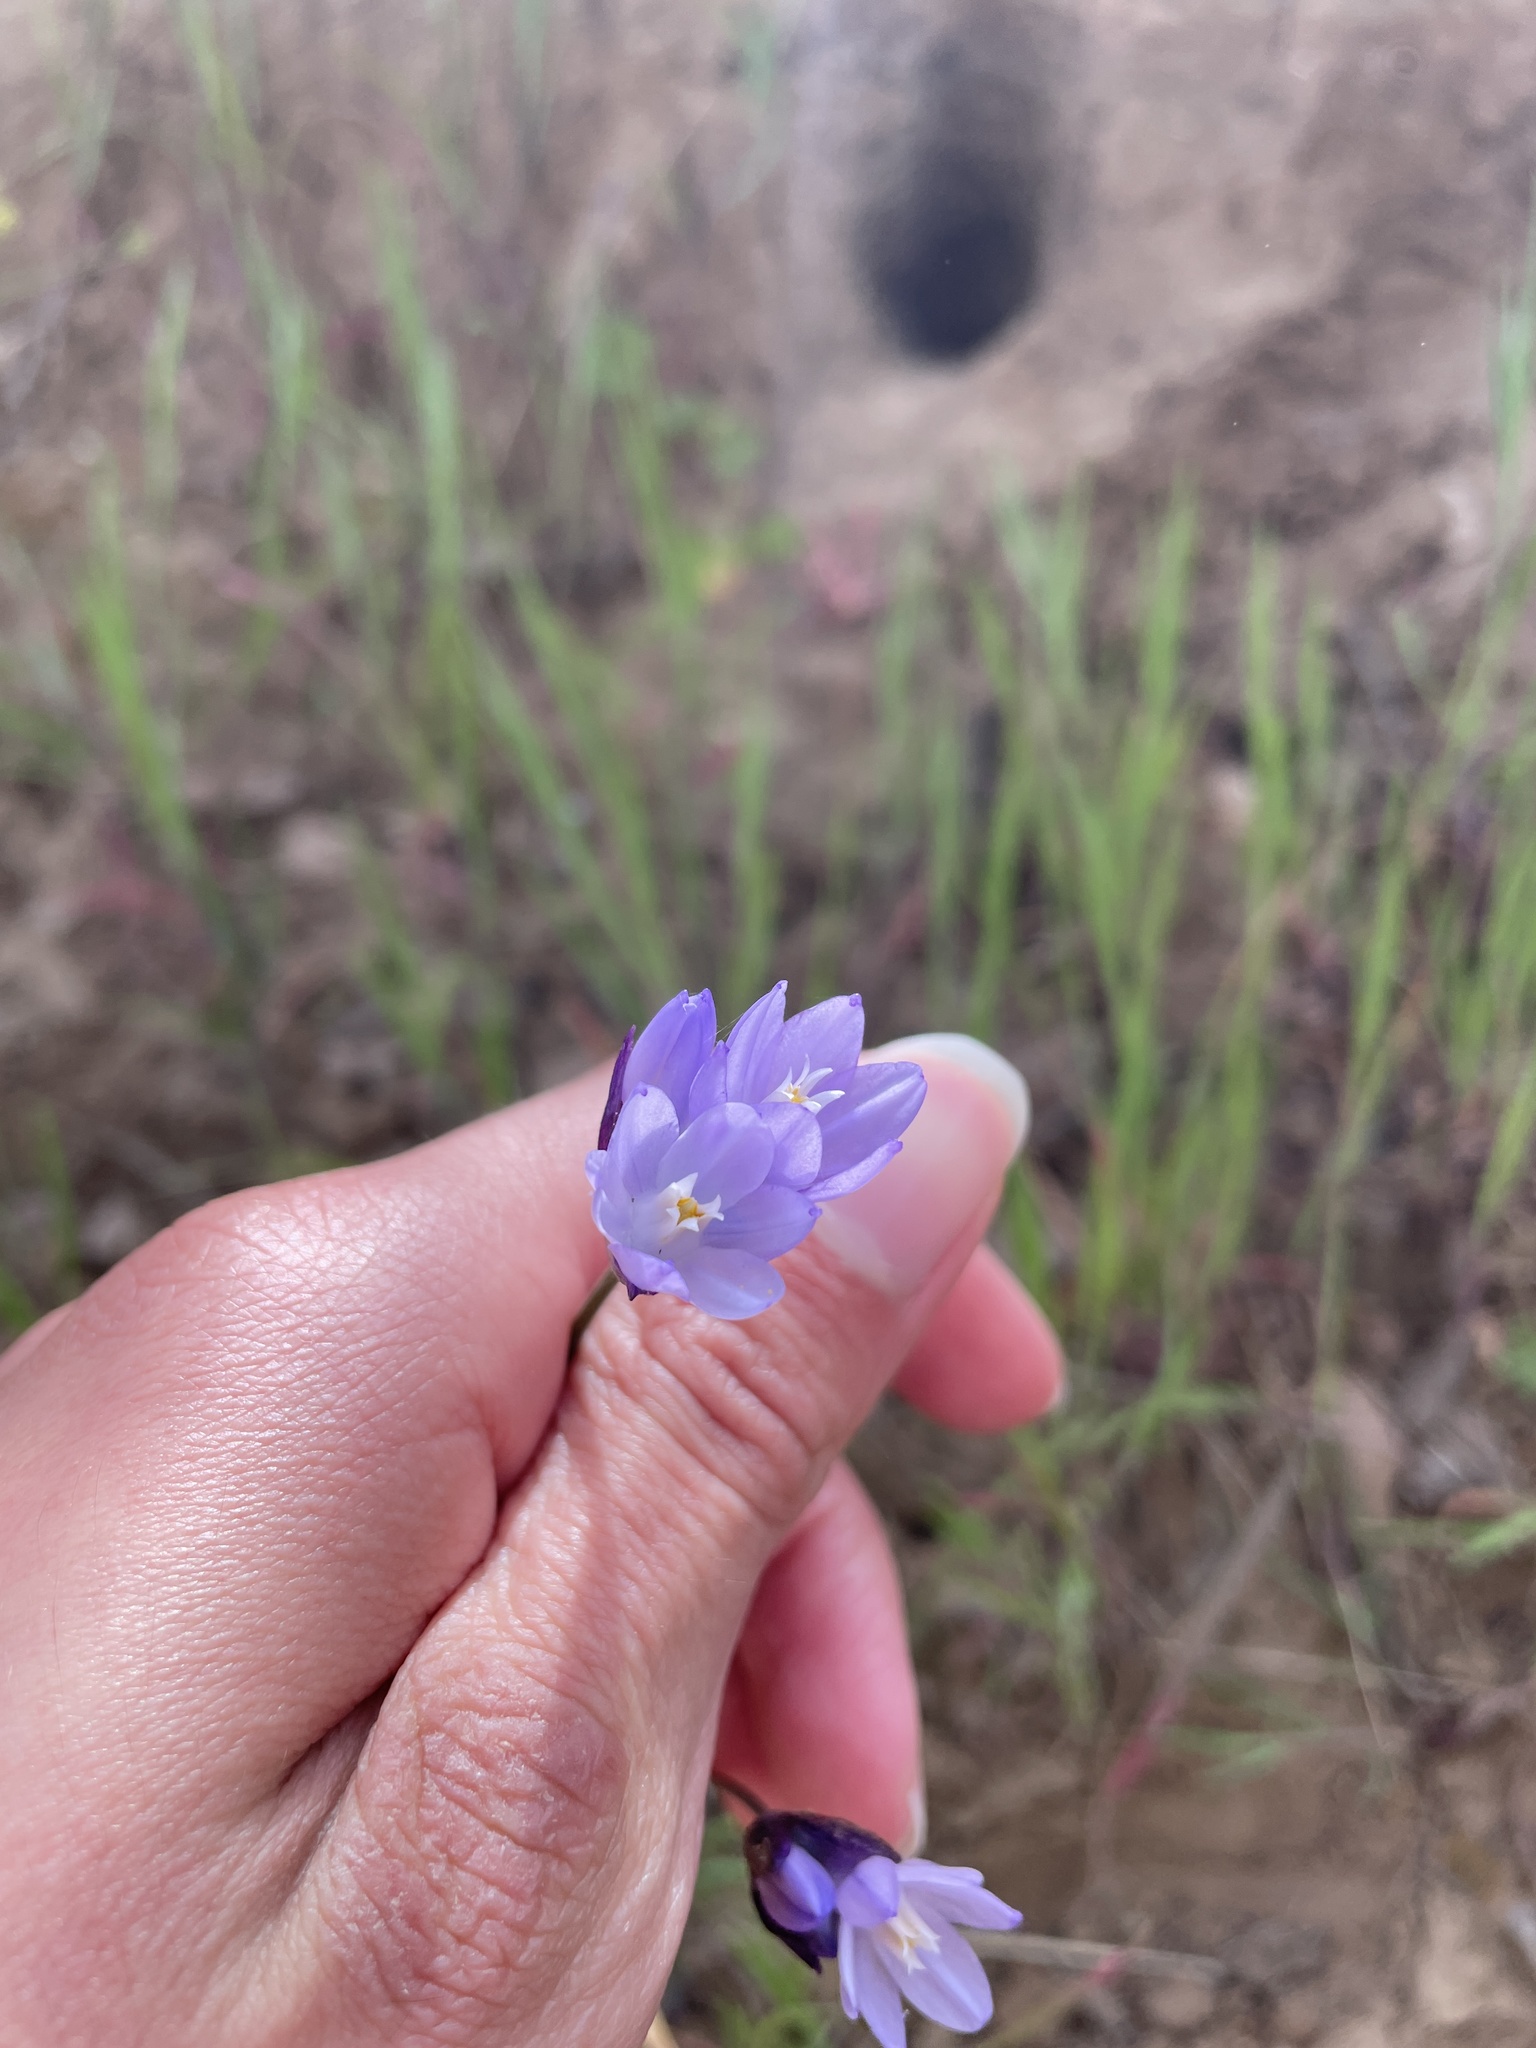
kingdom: Plantae
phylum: Tracheophyta
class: Liliopsida
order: Asparagales
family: Asparagaceae
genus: Dipterostemon
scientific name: Dipterostemon capitatus
